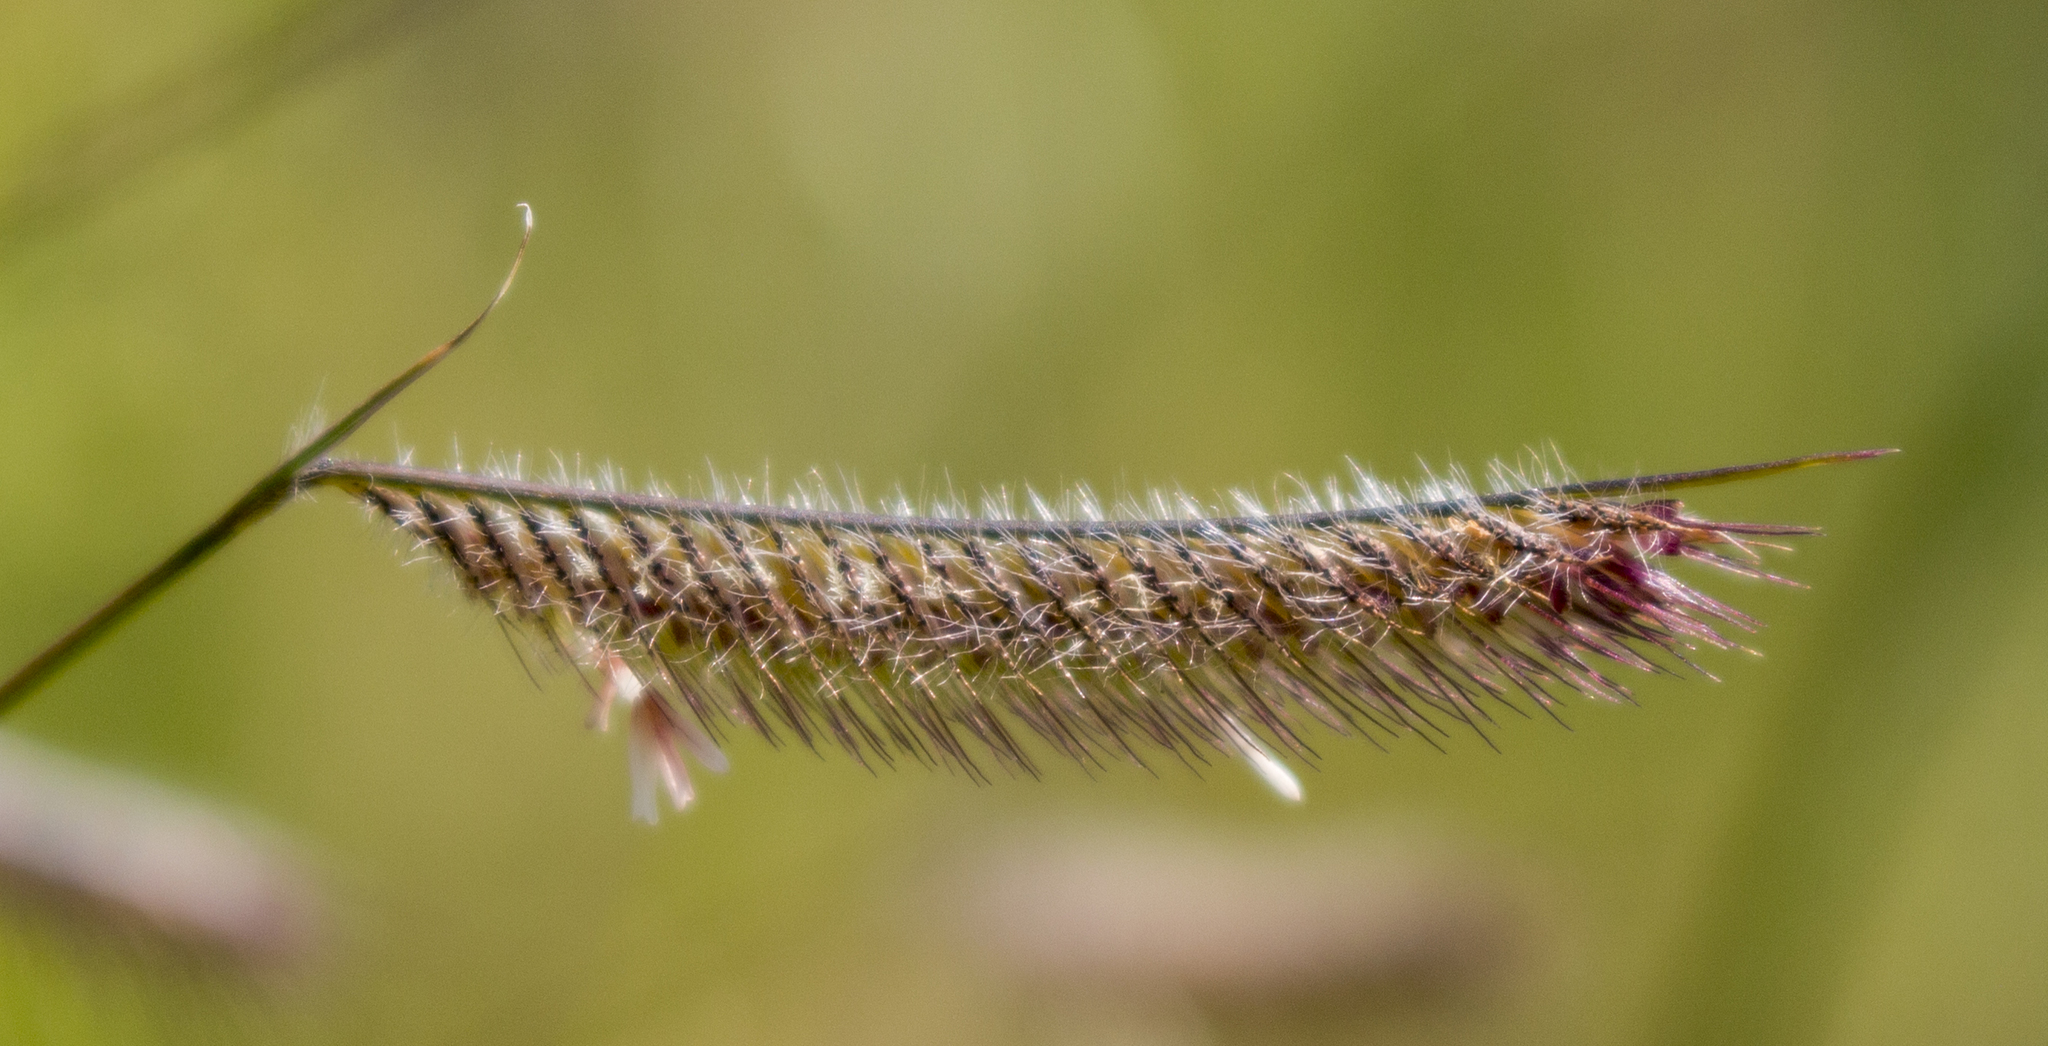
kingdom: Plantae
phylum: Tracheophyta
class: Liliopsida
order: Poales
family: Poaceae
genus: Bouteloua
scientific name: Bouteloua hirsuta
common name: Hairy grama
